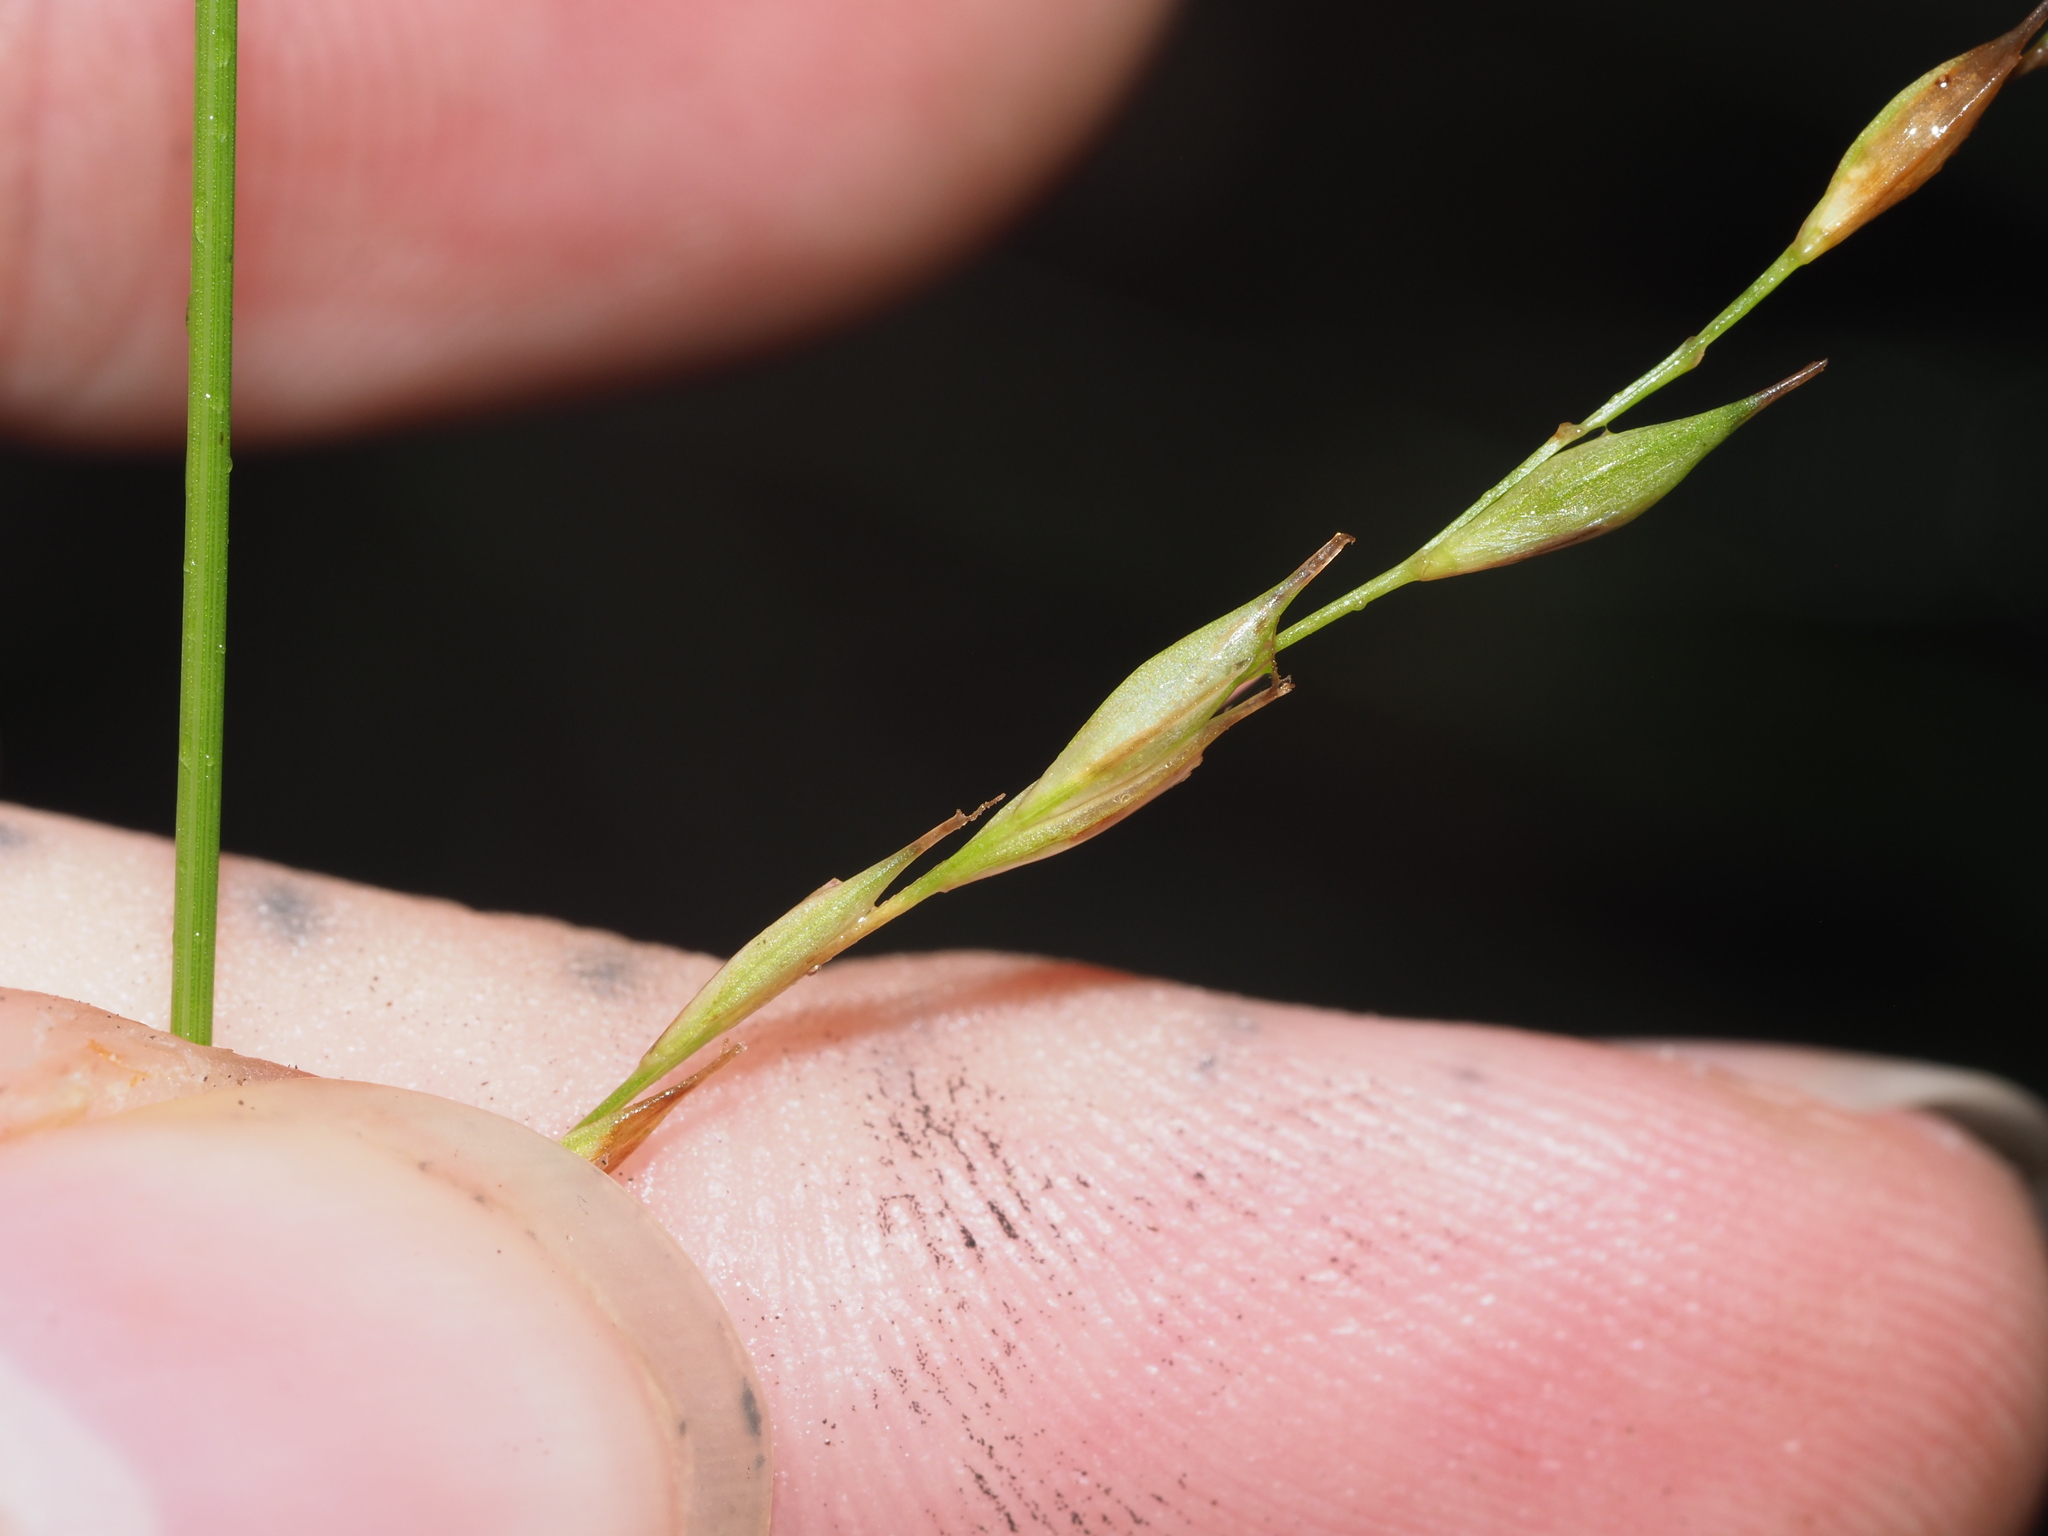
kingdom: Plantae
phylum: Tracheophyta
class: Liliopsida
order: Poales
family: Cyperaceae
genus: Carex
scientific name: Carex debilis
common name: White-edge sedge
